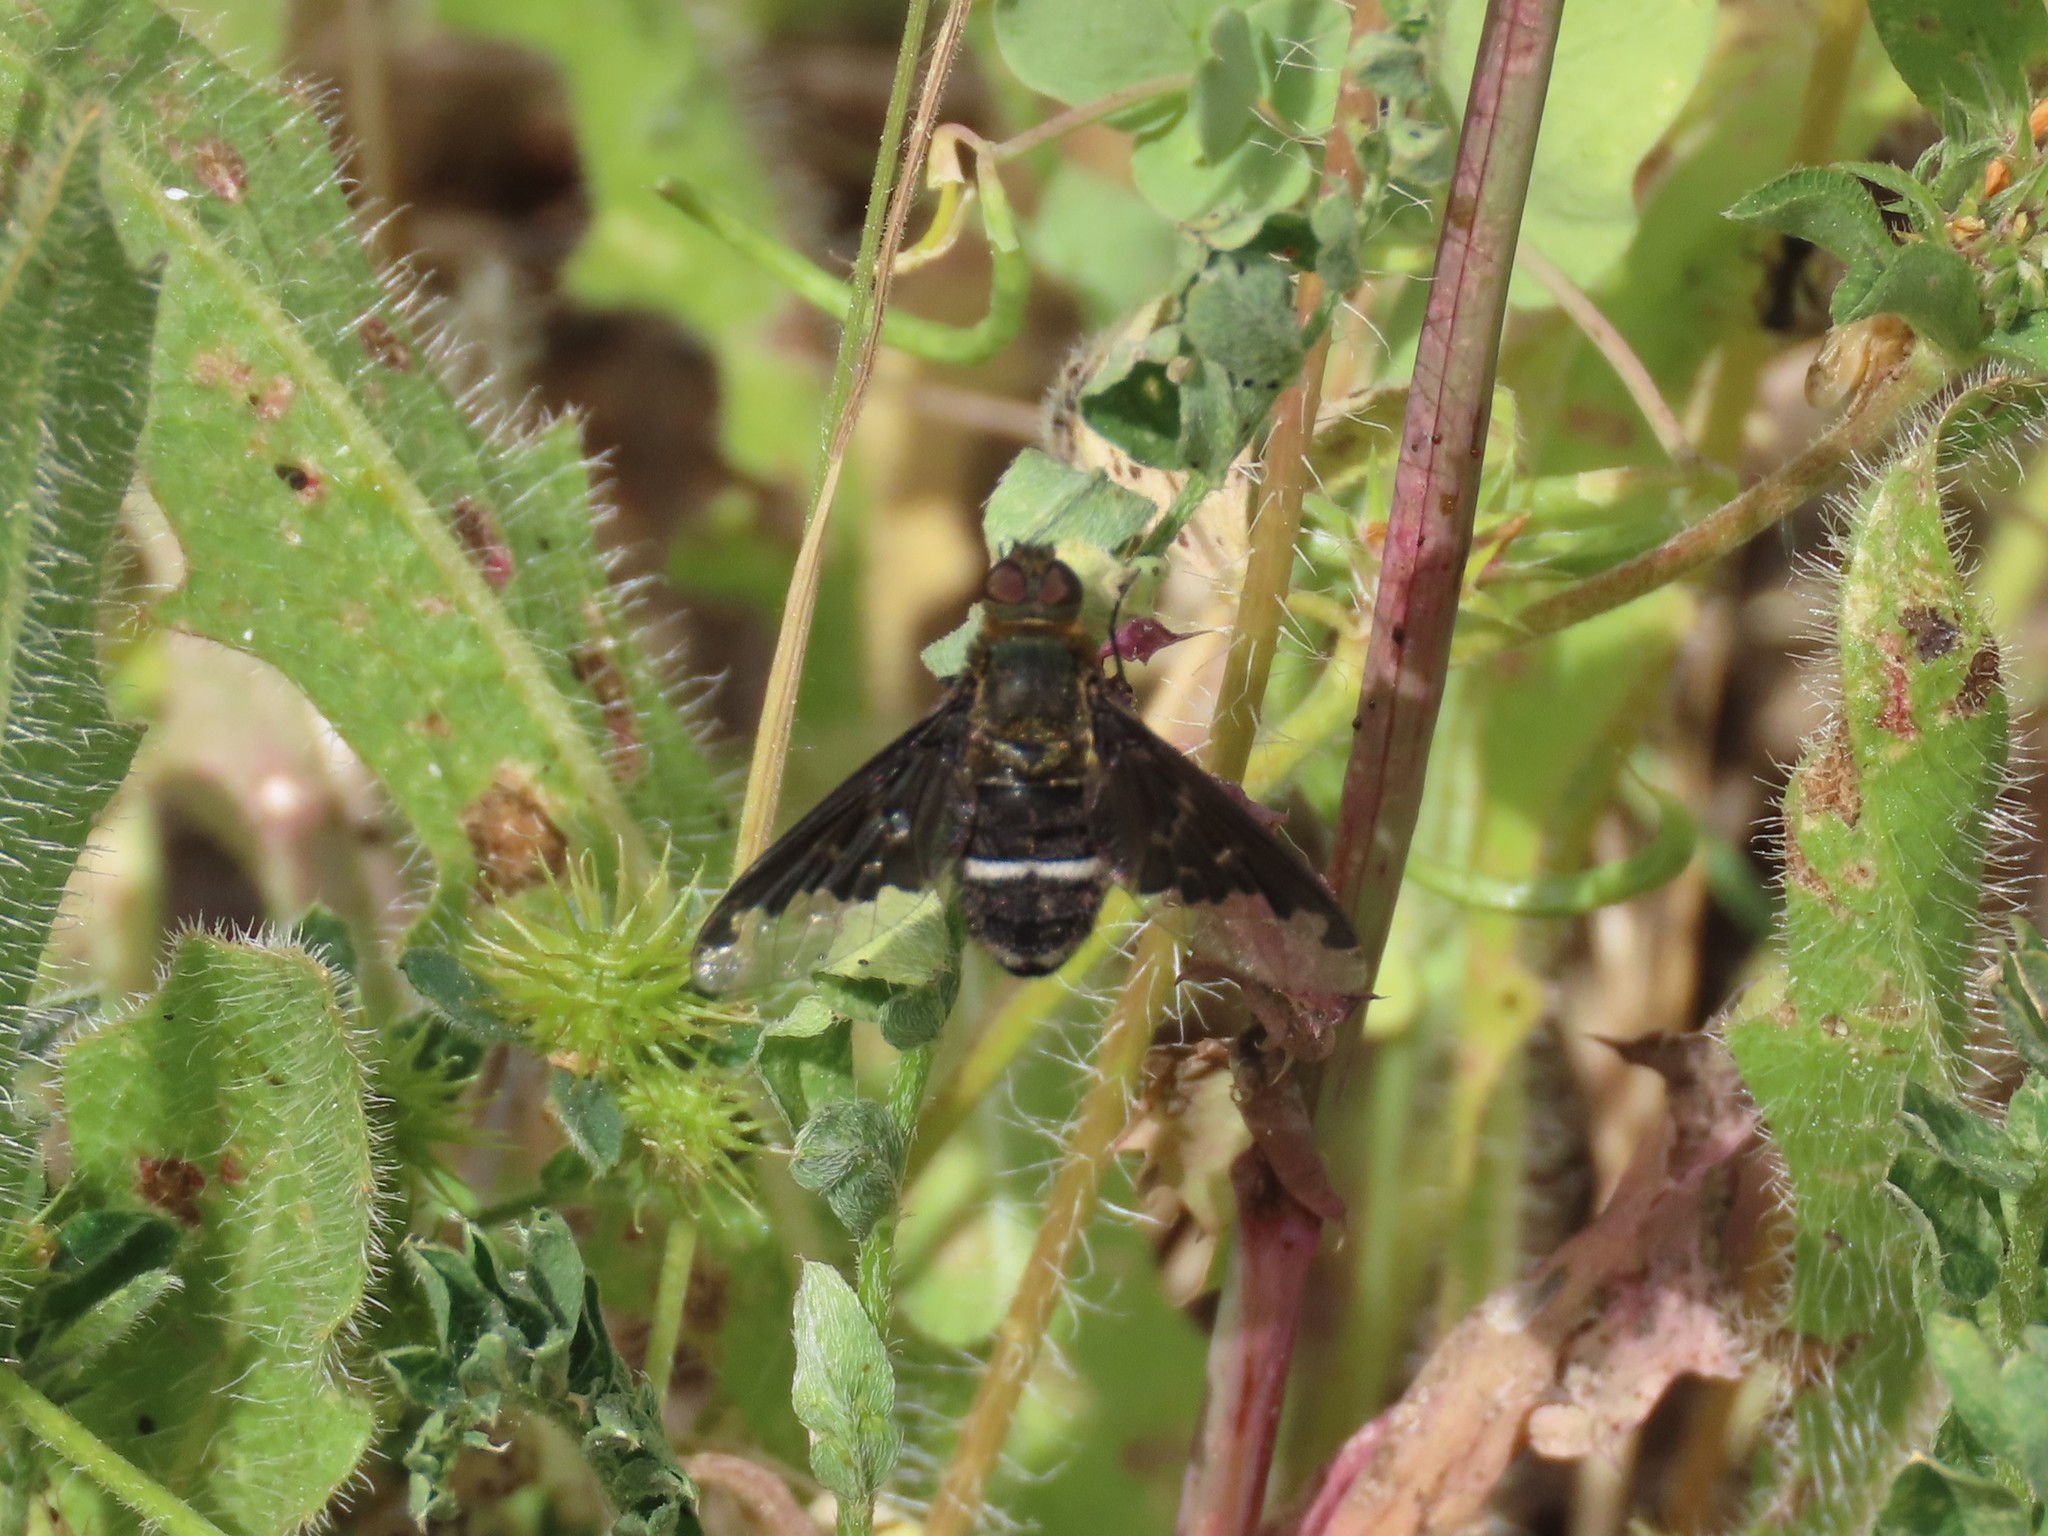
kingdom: Animalia
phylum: Arthropoda
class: Insecta
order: Diptera
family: Bombyliidae
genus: Hemipenthes
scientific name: Hemipenthes velutina
